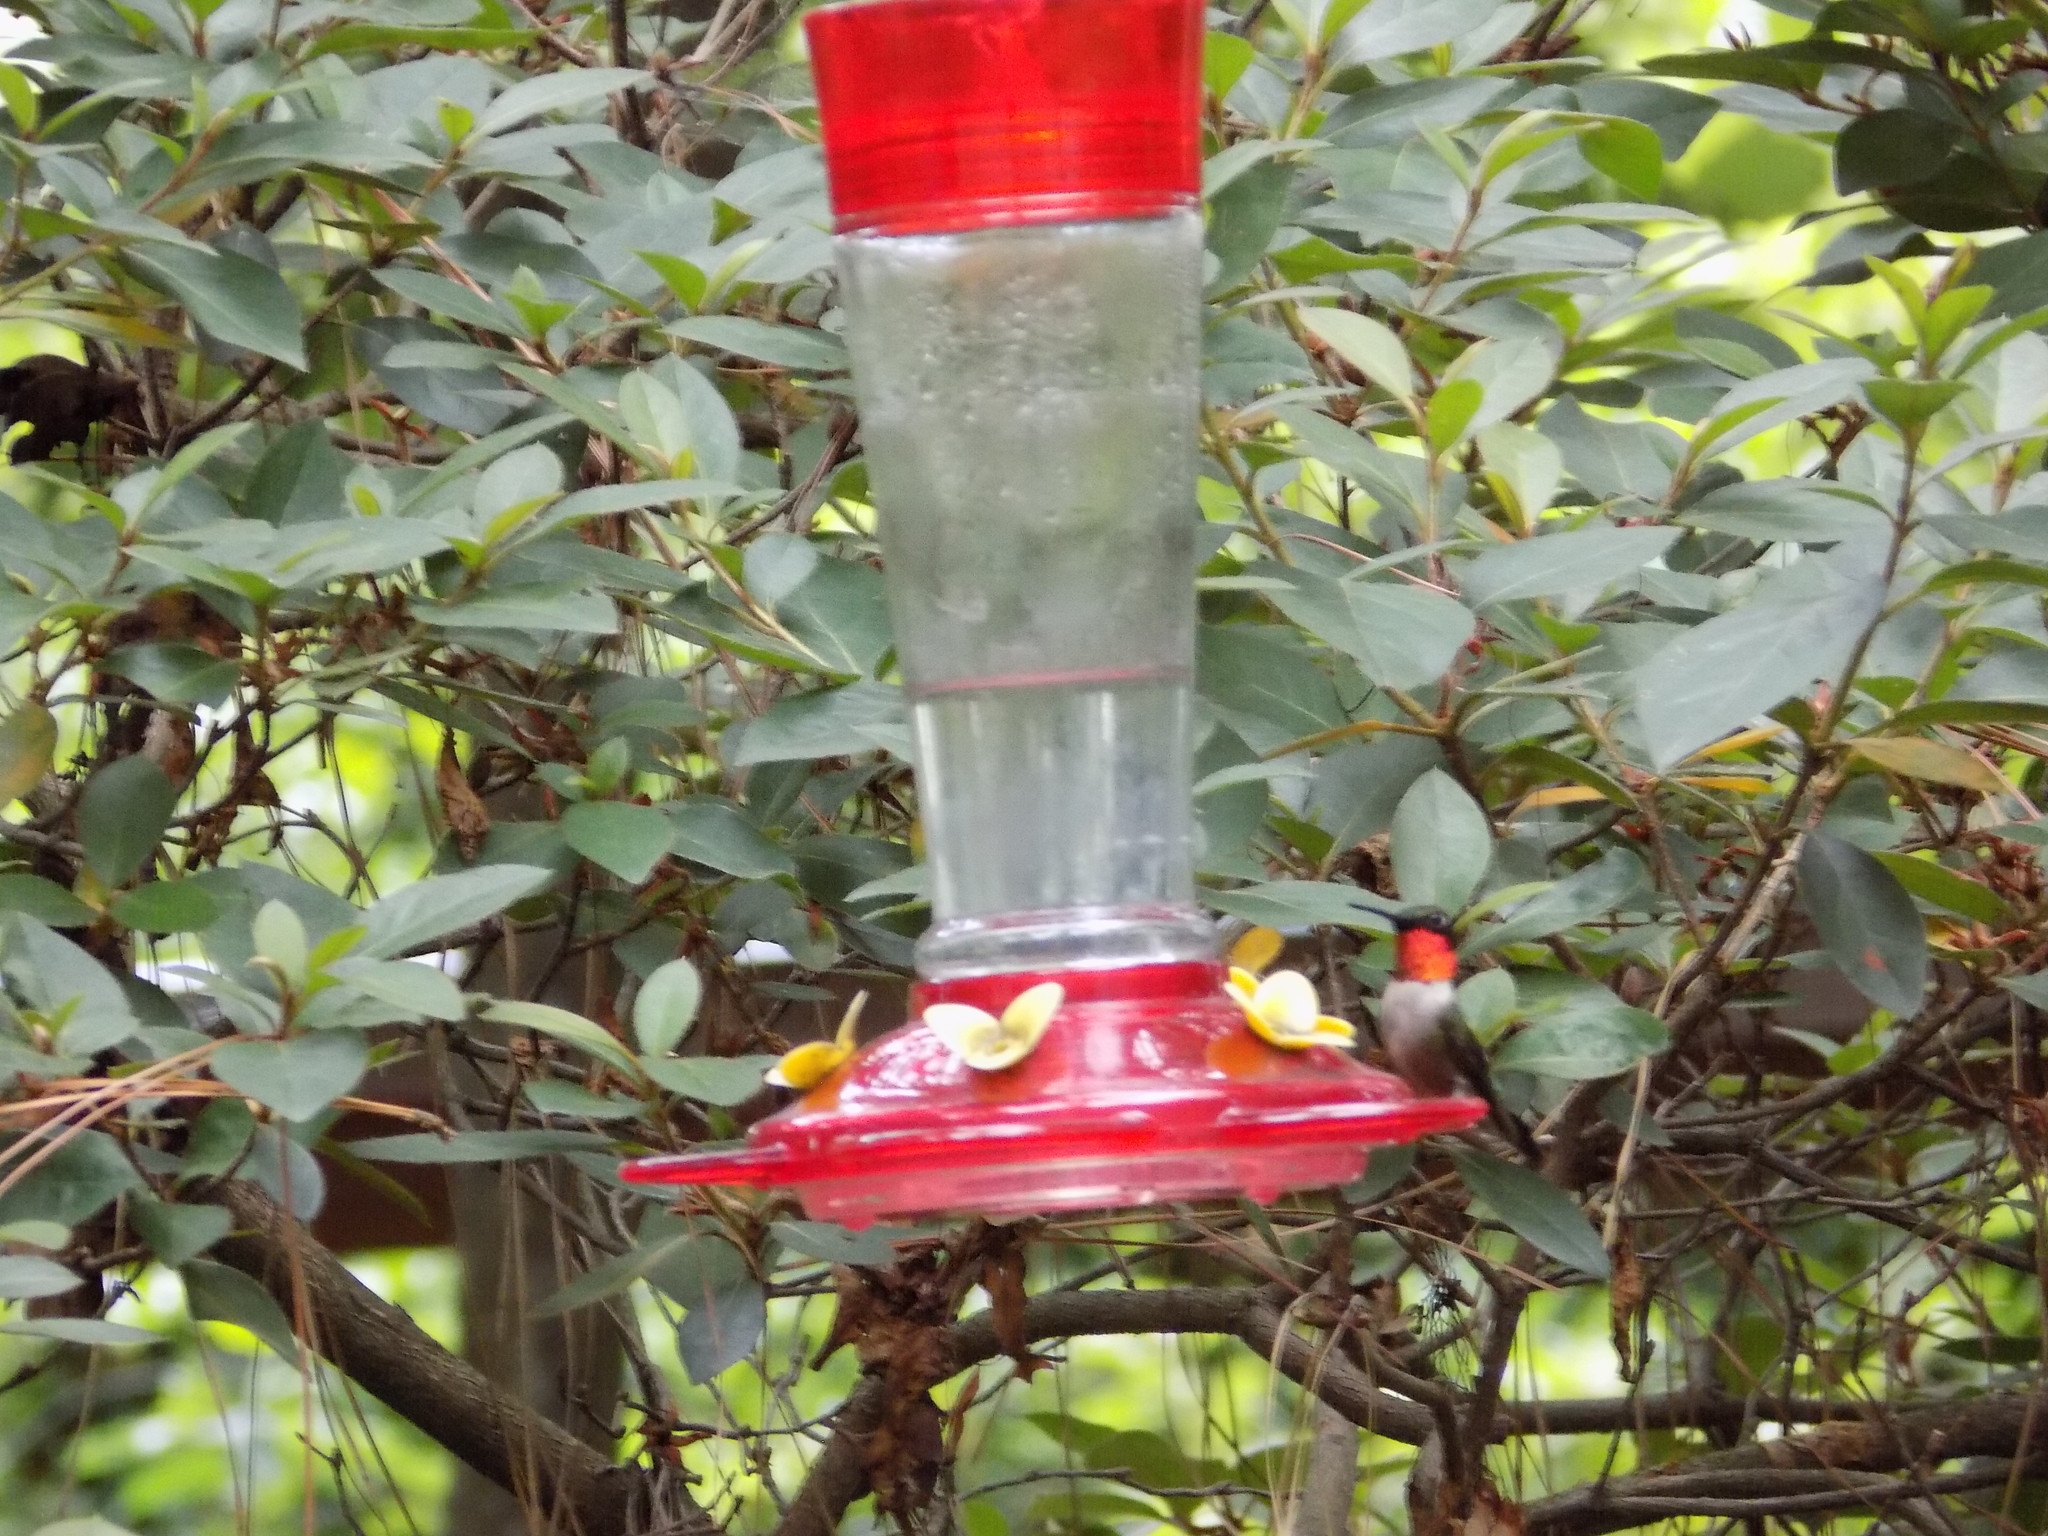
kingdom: Animalia
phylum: Chordata
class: Aves
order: Apodiformes
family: Trochilidae
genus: Archilochus
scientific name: Archilochus colubris
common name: Ruby-throated hummingbird
